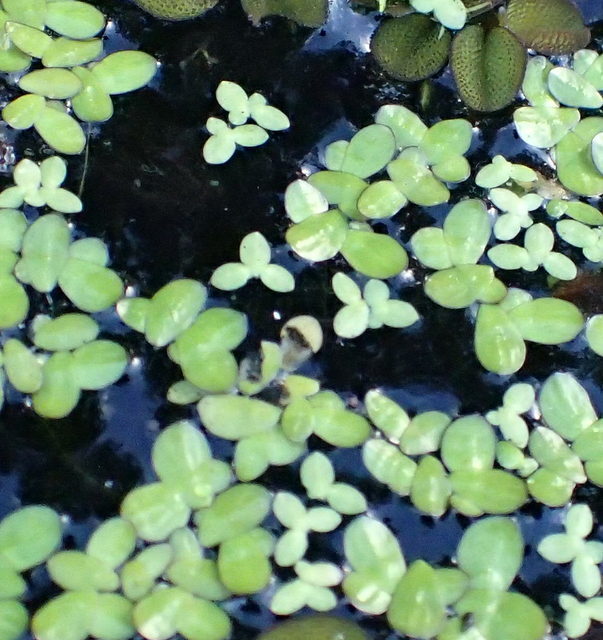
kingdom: Plantae
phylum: Tracheophyta
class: Liliopsida
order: Alismatales
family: Araceae
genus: Lemna
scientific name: Lemna minor
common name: Common duckweed
